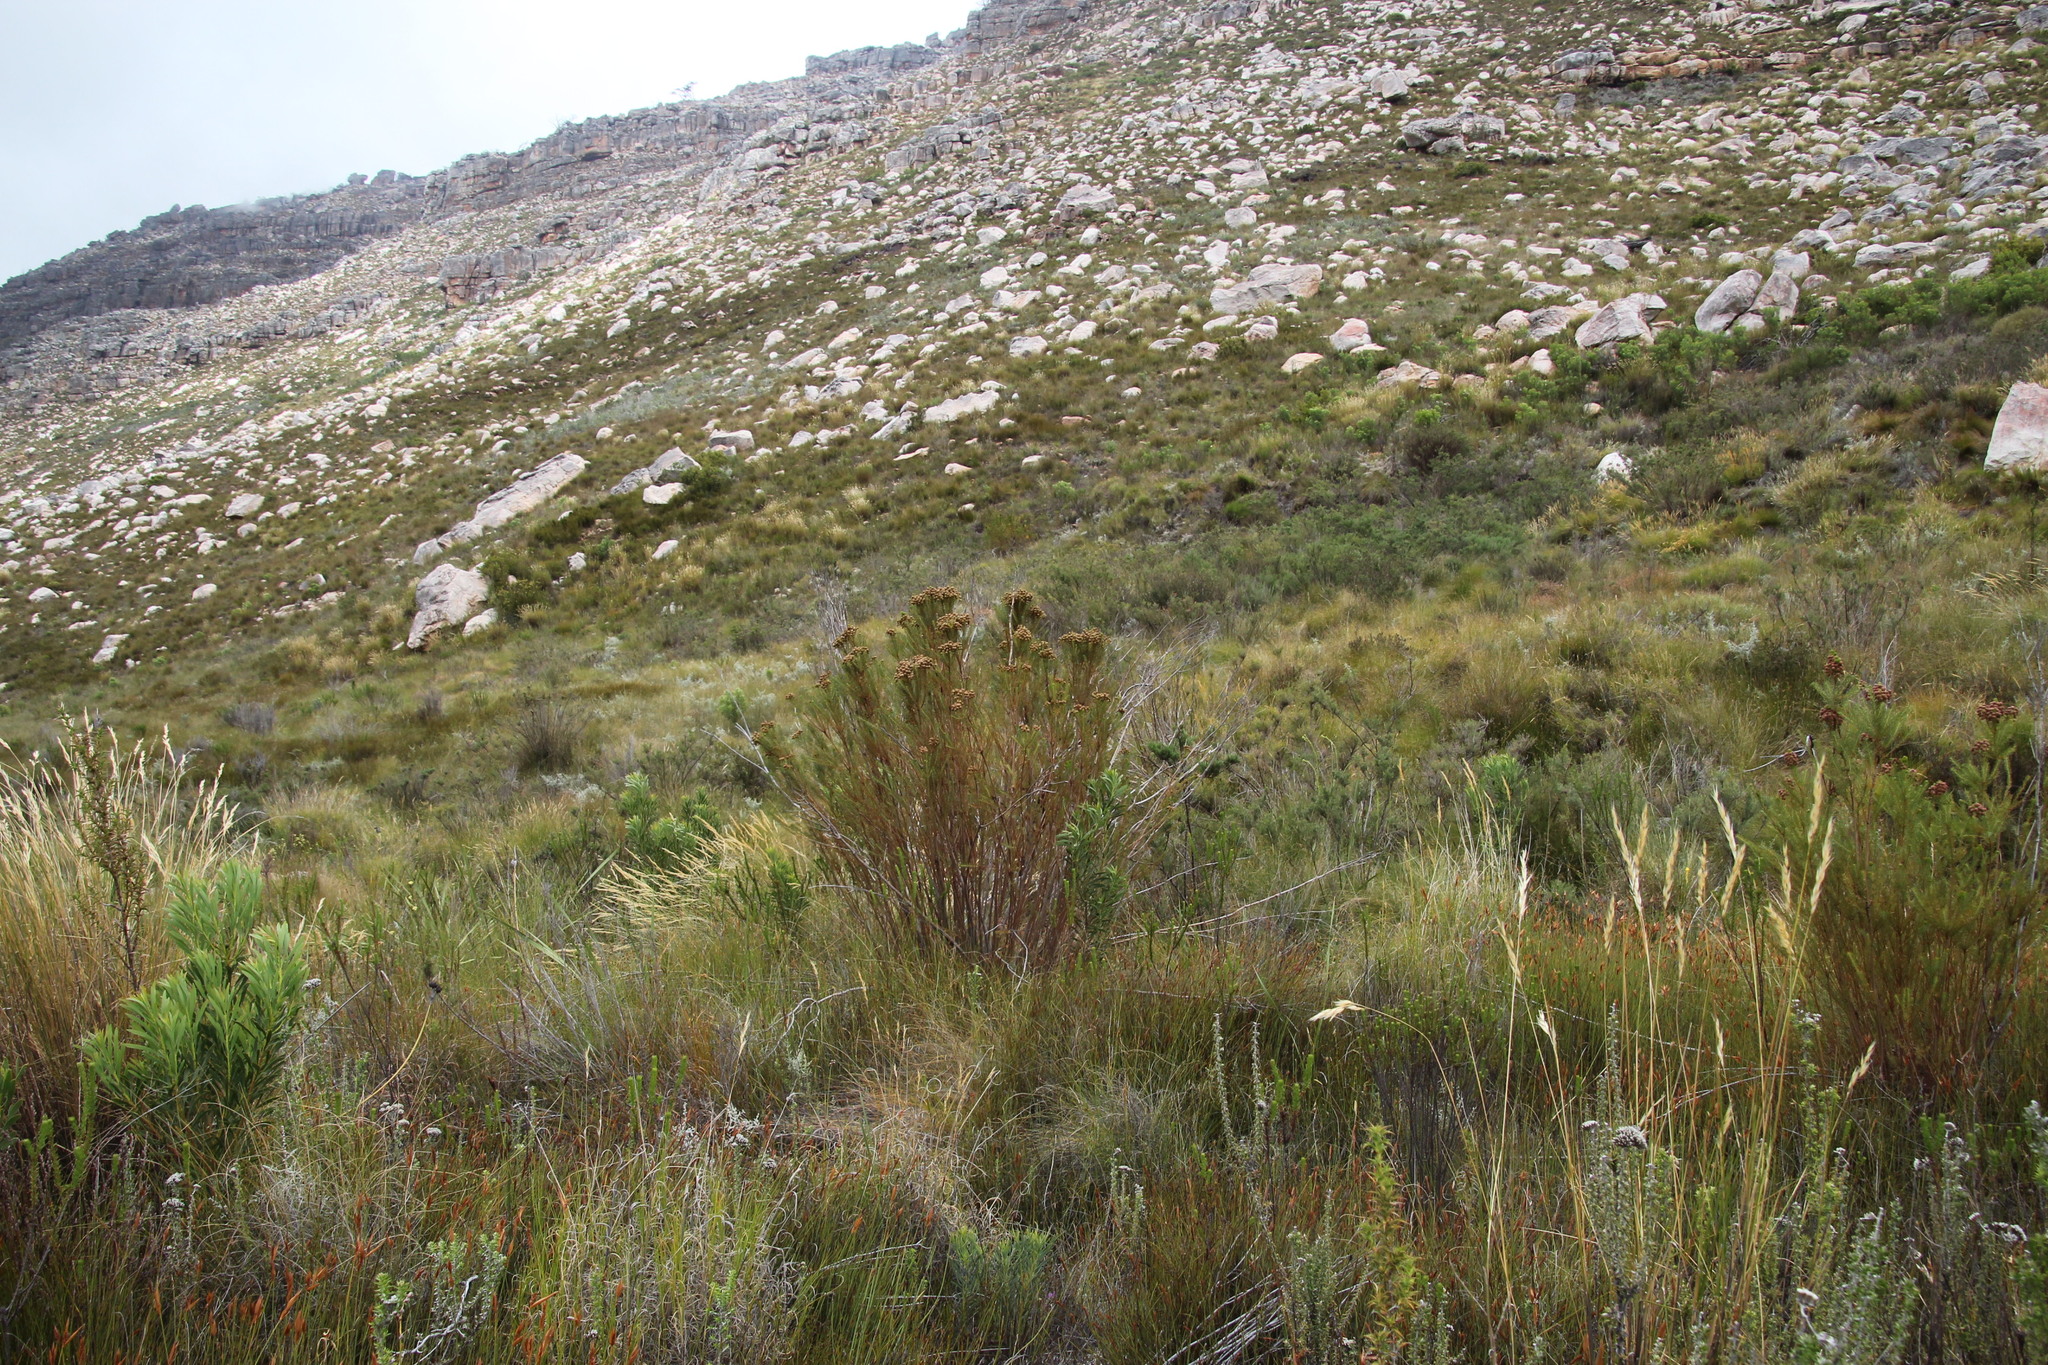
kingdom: Plantae
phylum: Tracheophyta
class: Magnoliopsida
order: Bruniales
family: Bruniaceae
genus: Berzelia
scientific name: Berzelia squarrosa
